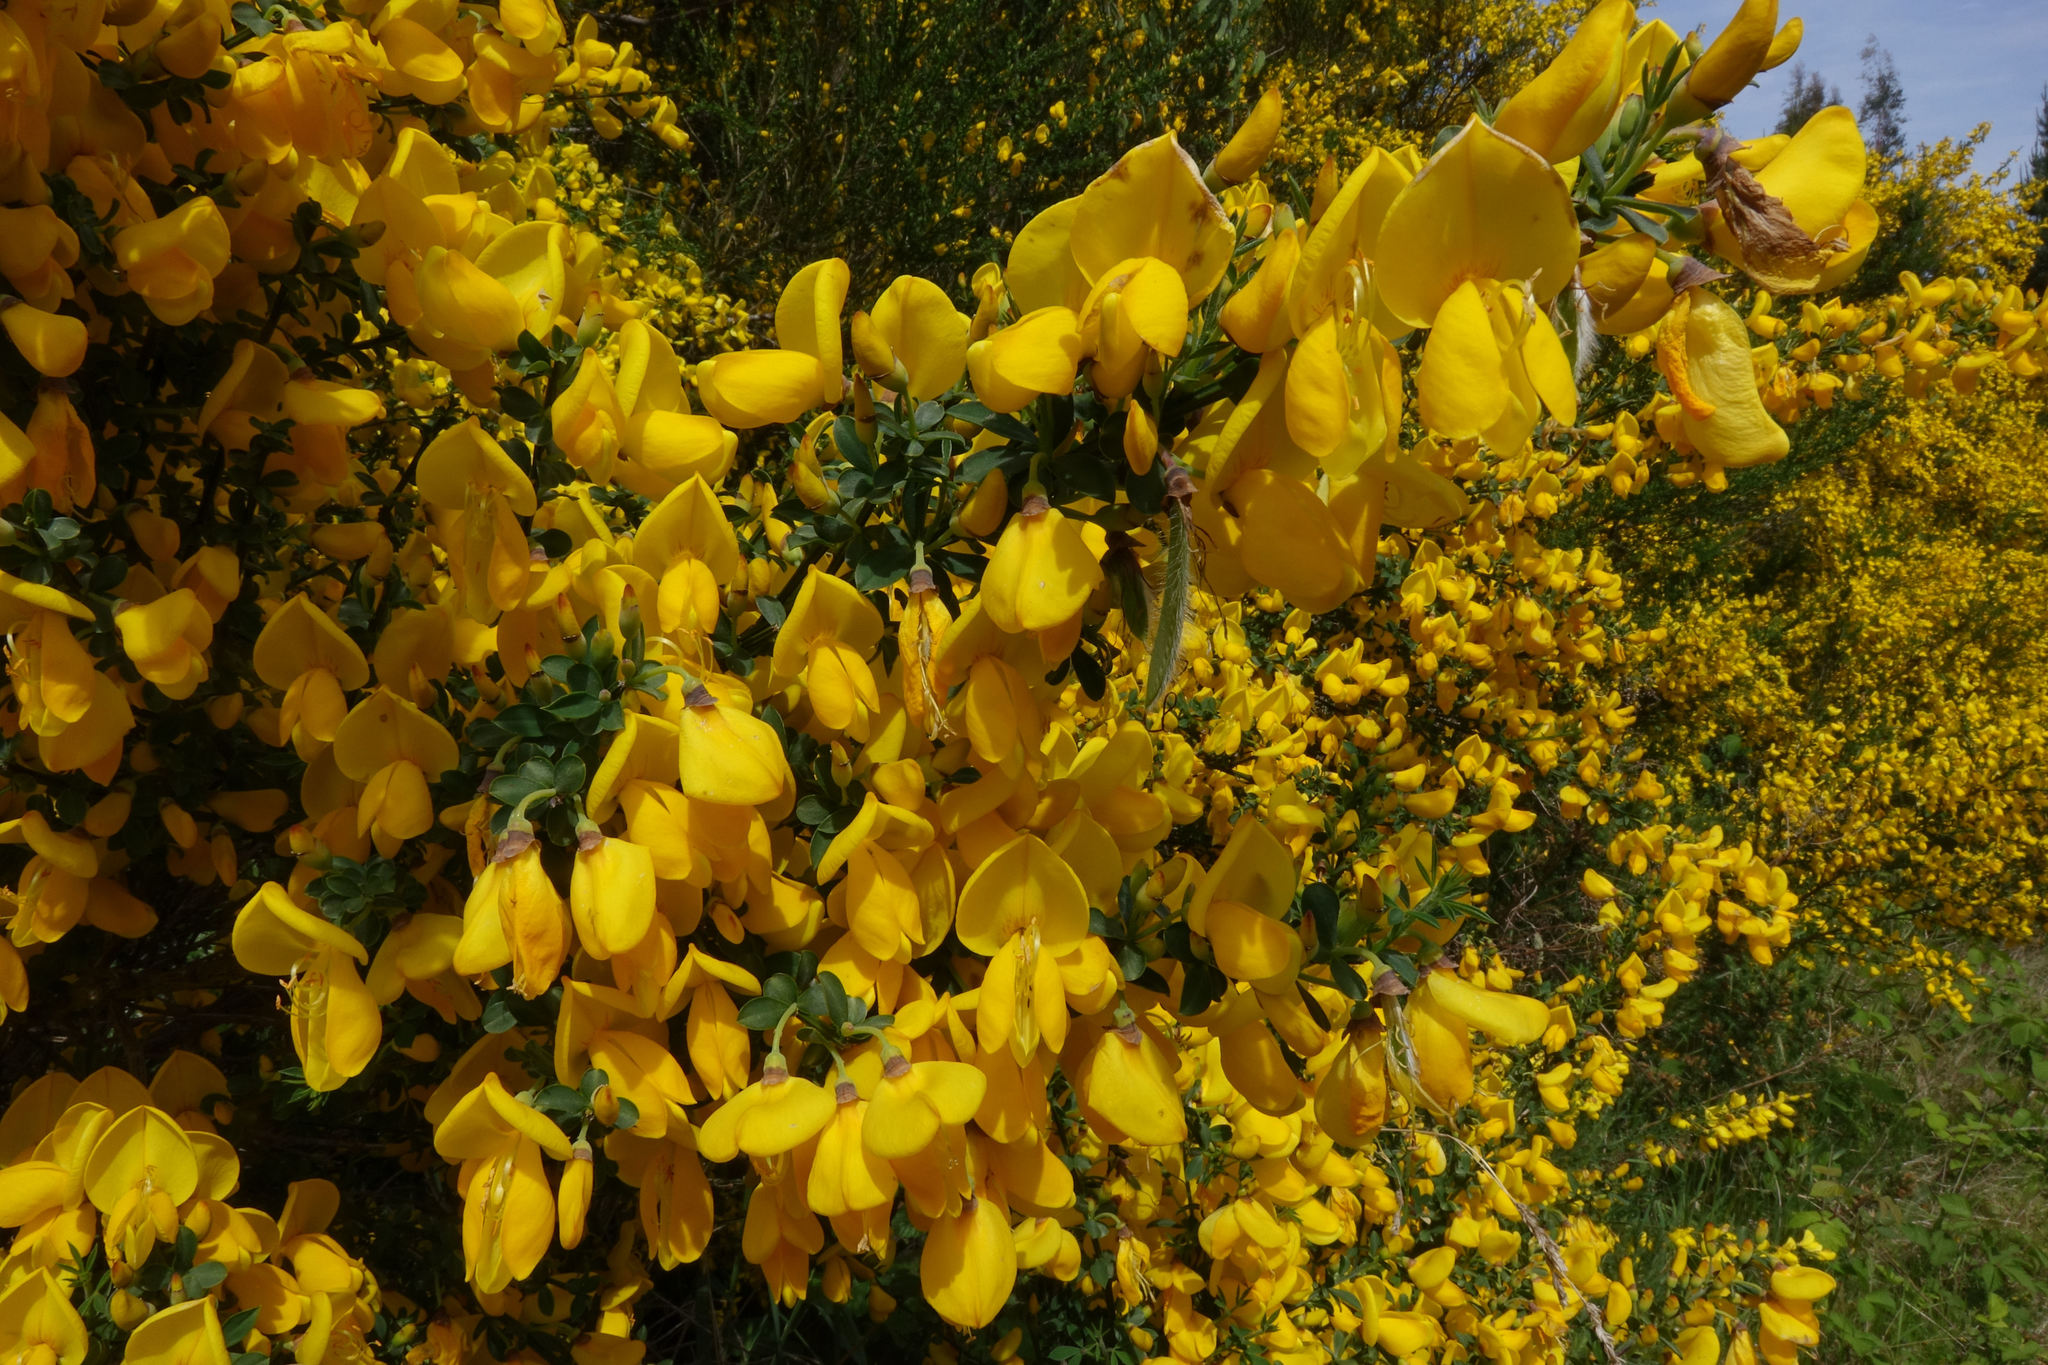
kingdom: Plantae
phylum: Tracheophyta
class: Magnoliopsida
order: Fabales
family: Fabaceae
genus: Cytisus
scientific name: Cytisus scoparius
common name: Scotch broom
